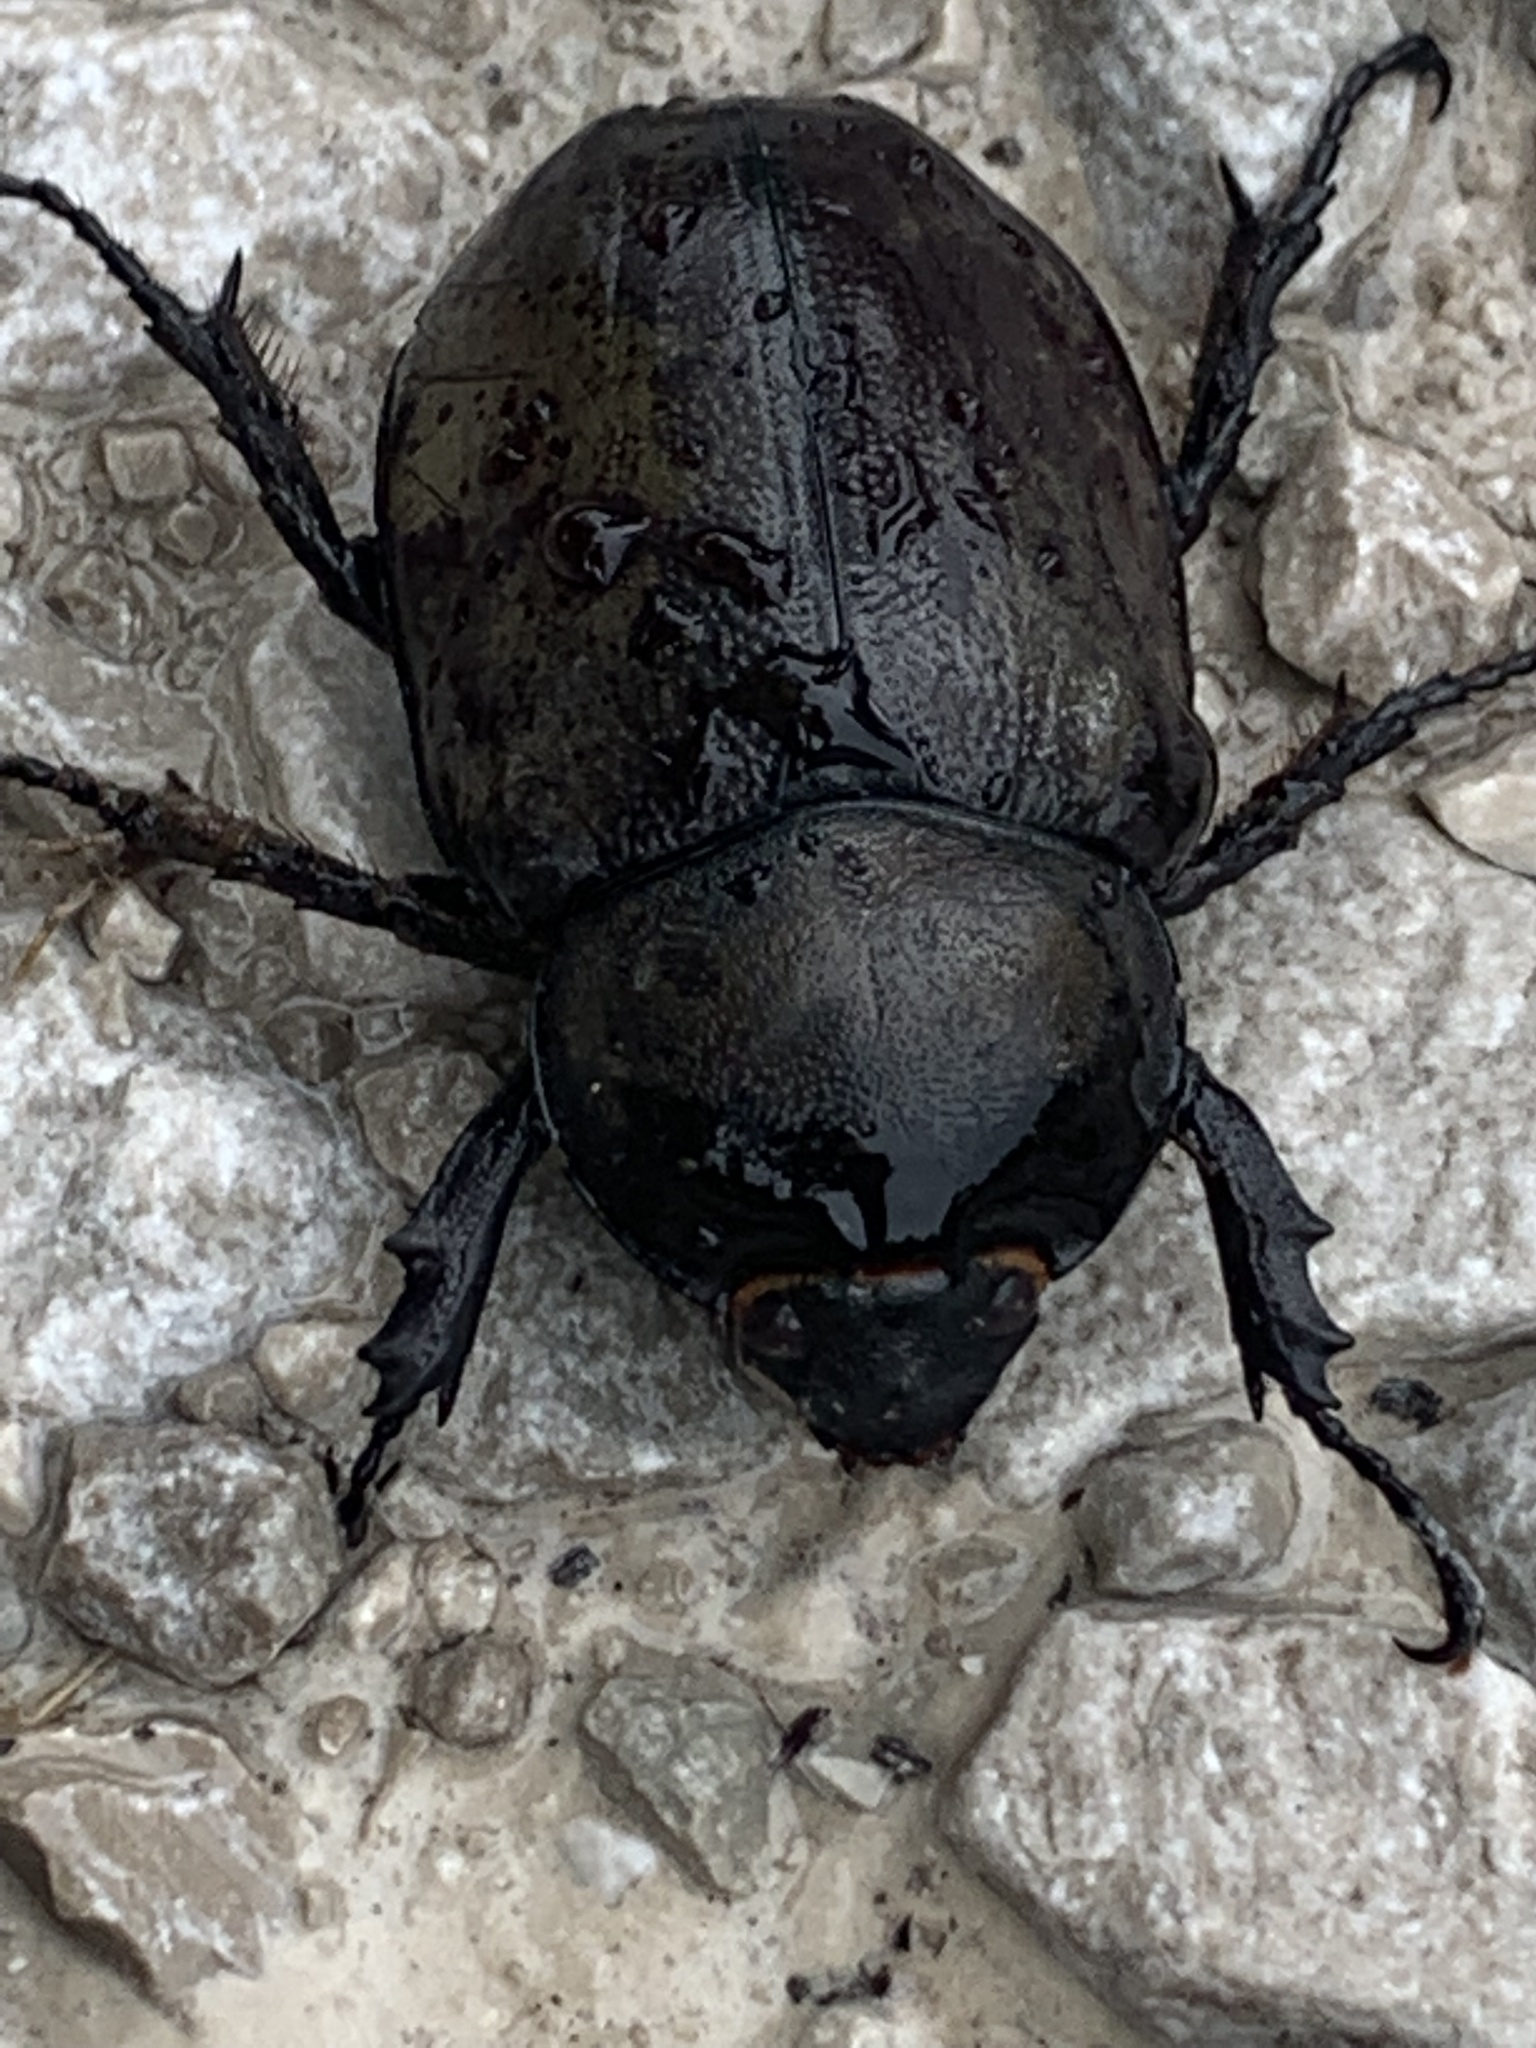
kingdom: Animalia
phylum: Arthropoda
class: Insecta
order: Coleoptera
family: Scarabaeidae
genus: Dynastes
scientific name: Dynastes tityus
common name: Eastern hercules beetle
